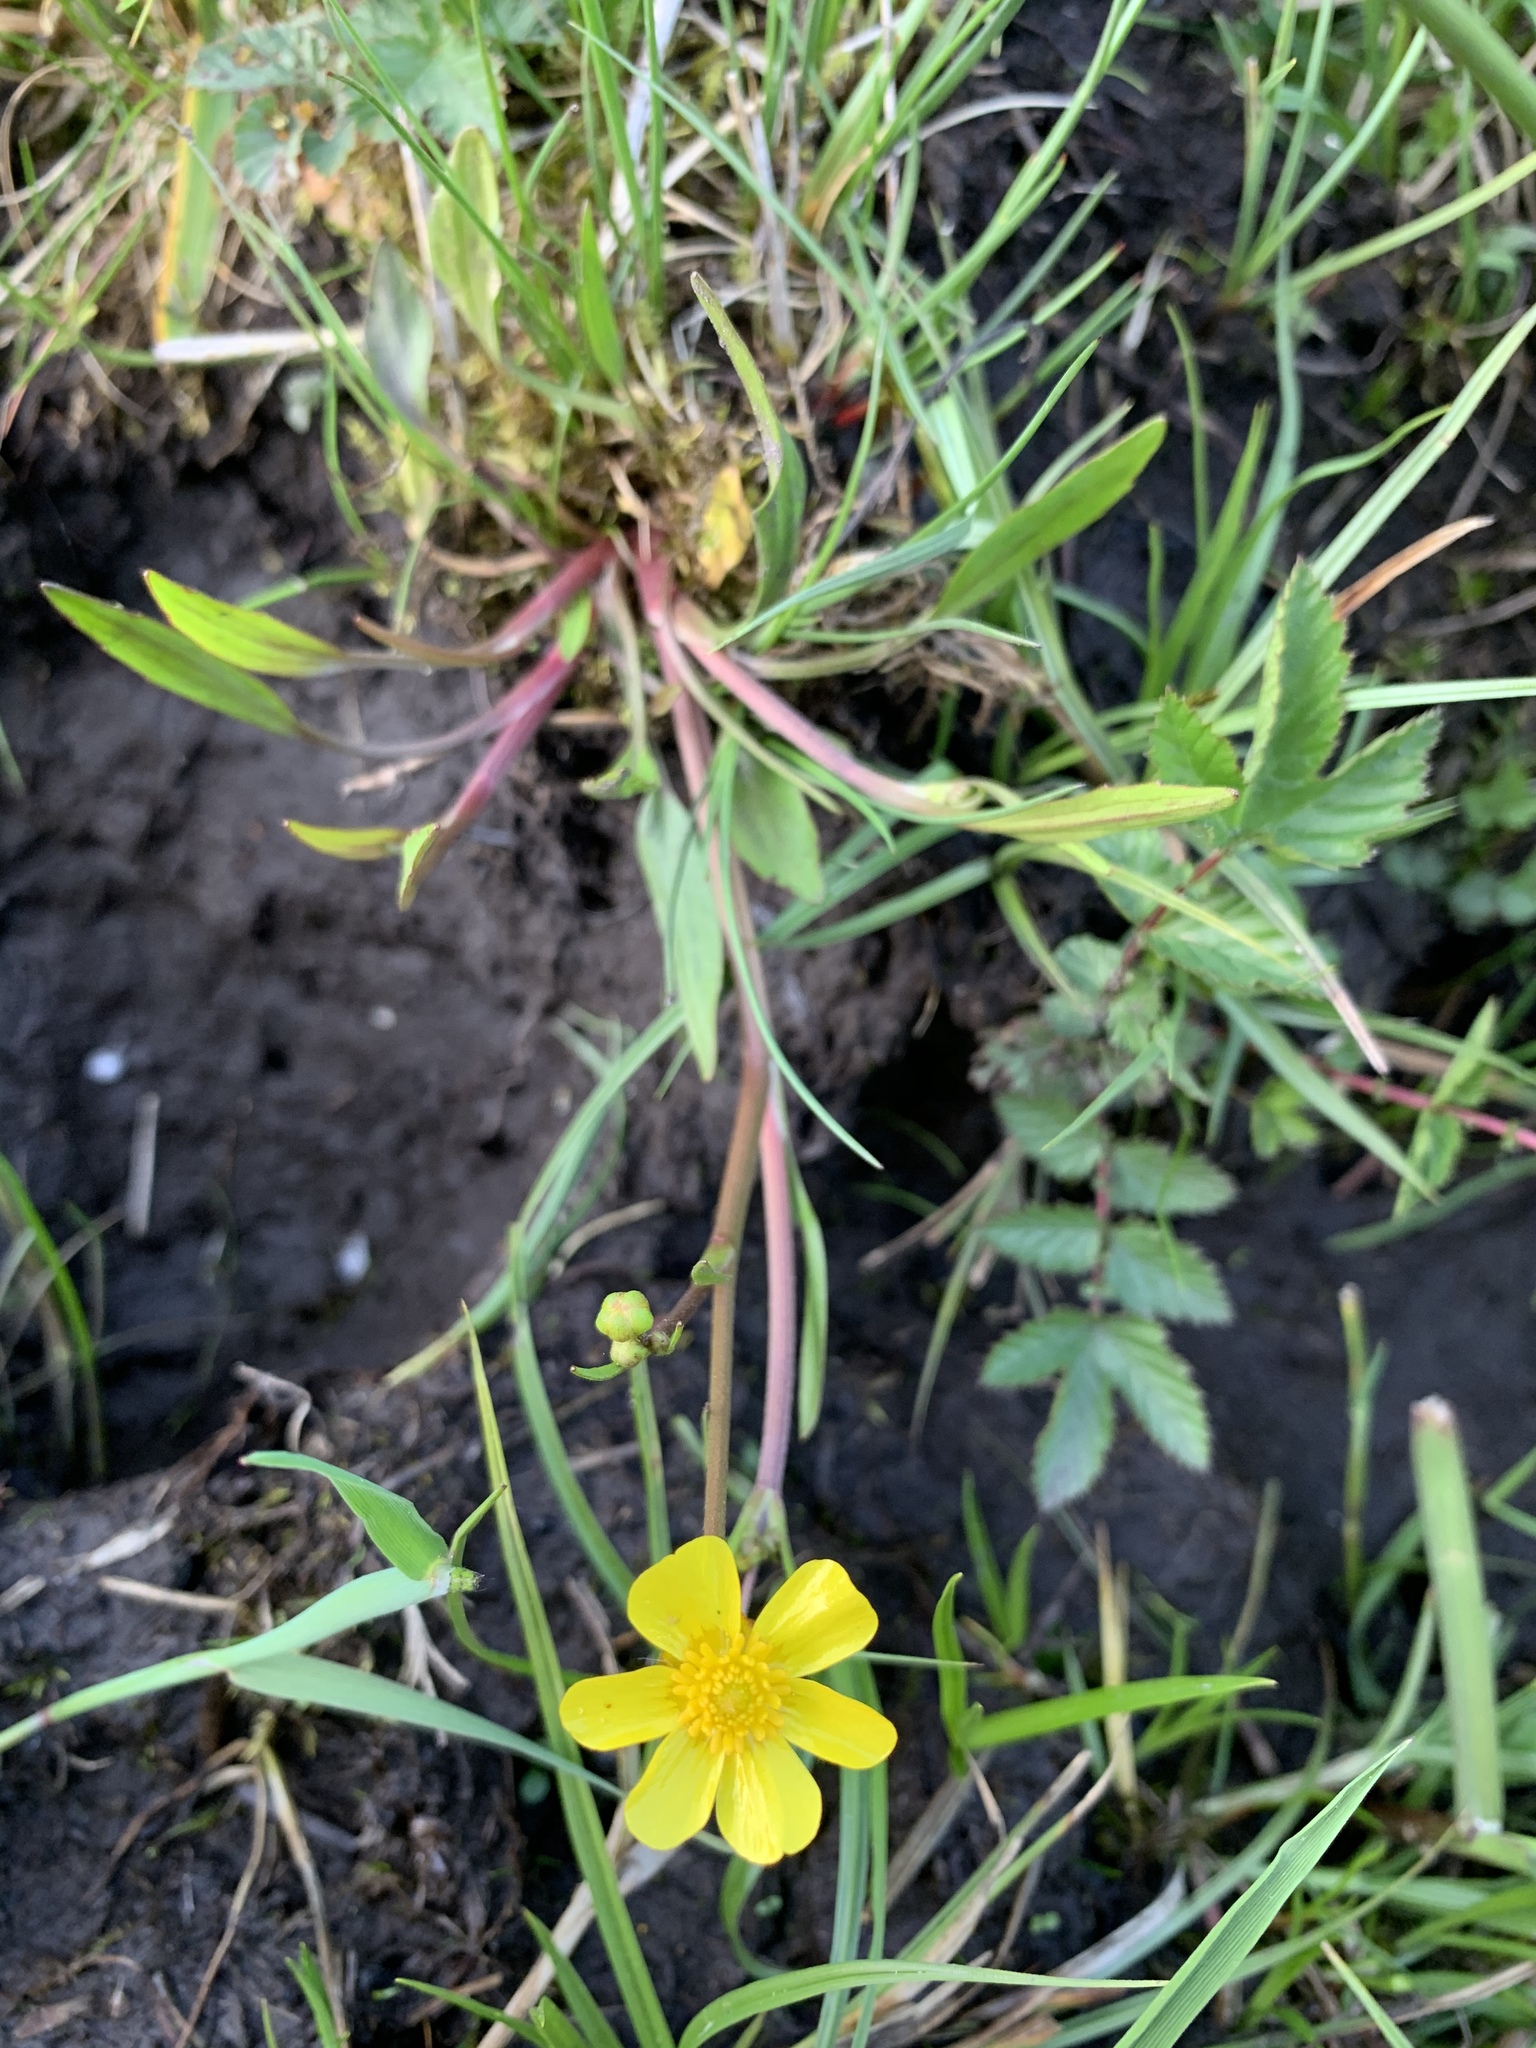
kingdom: Plantae
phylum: Tracheophyta
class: Magnoliopsida
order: Ranunculales
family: Ranunculaceae
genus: Ranunculus
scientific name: Ranunculus flammula
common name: Lesser spearwort
